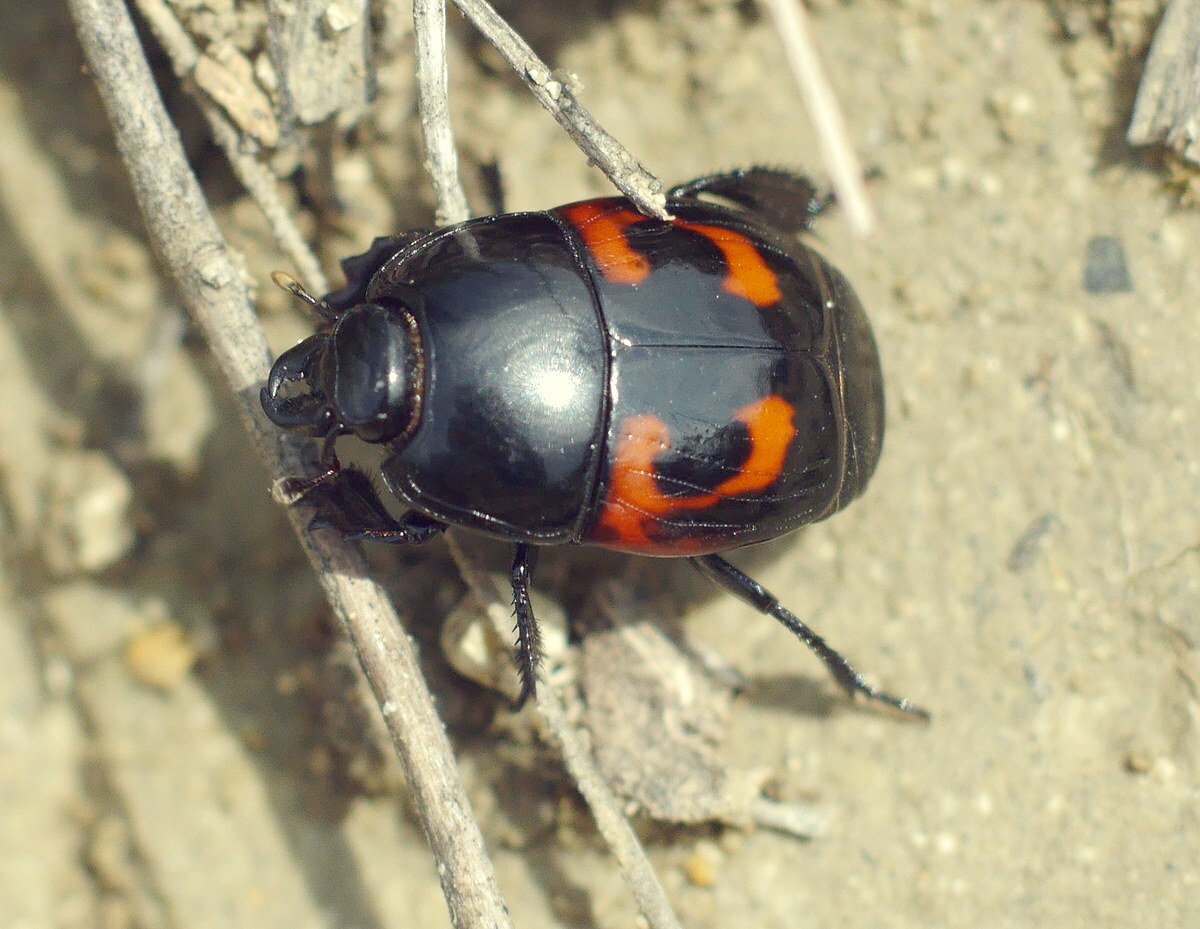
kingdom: Animalia
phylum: Arthropoda
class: Insecta
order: Coleoptera
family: Histeridae
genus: Hister
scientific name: Hister quadrimaculatus
